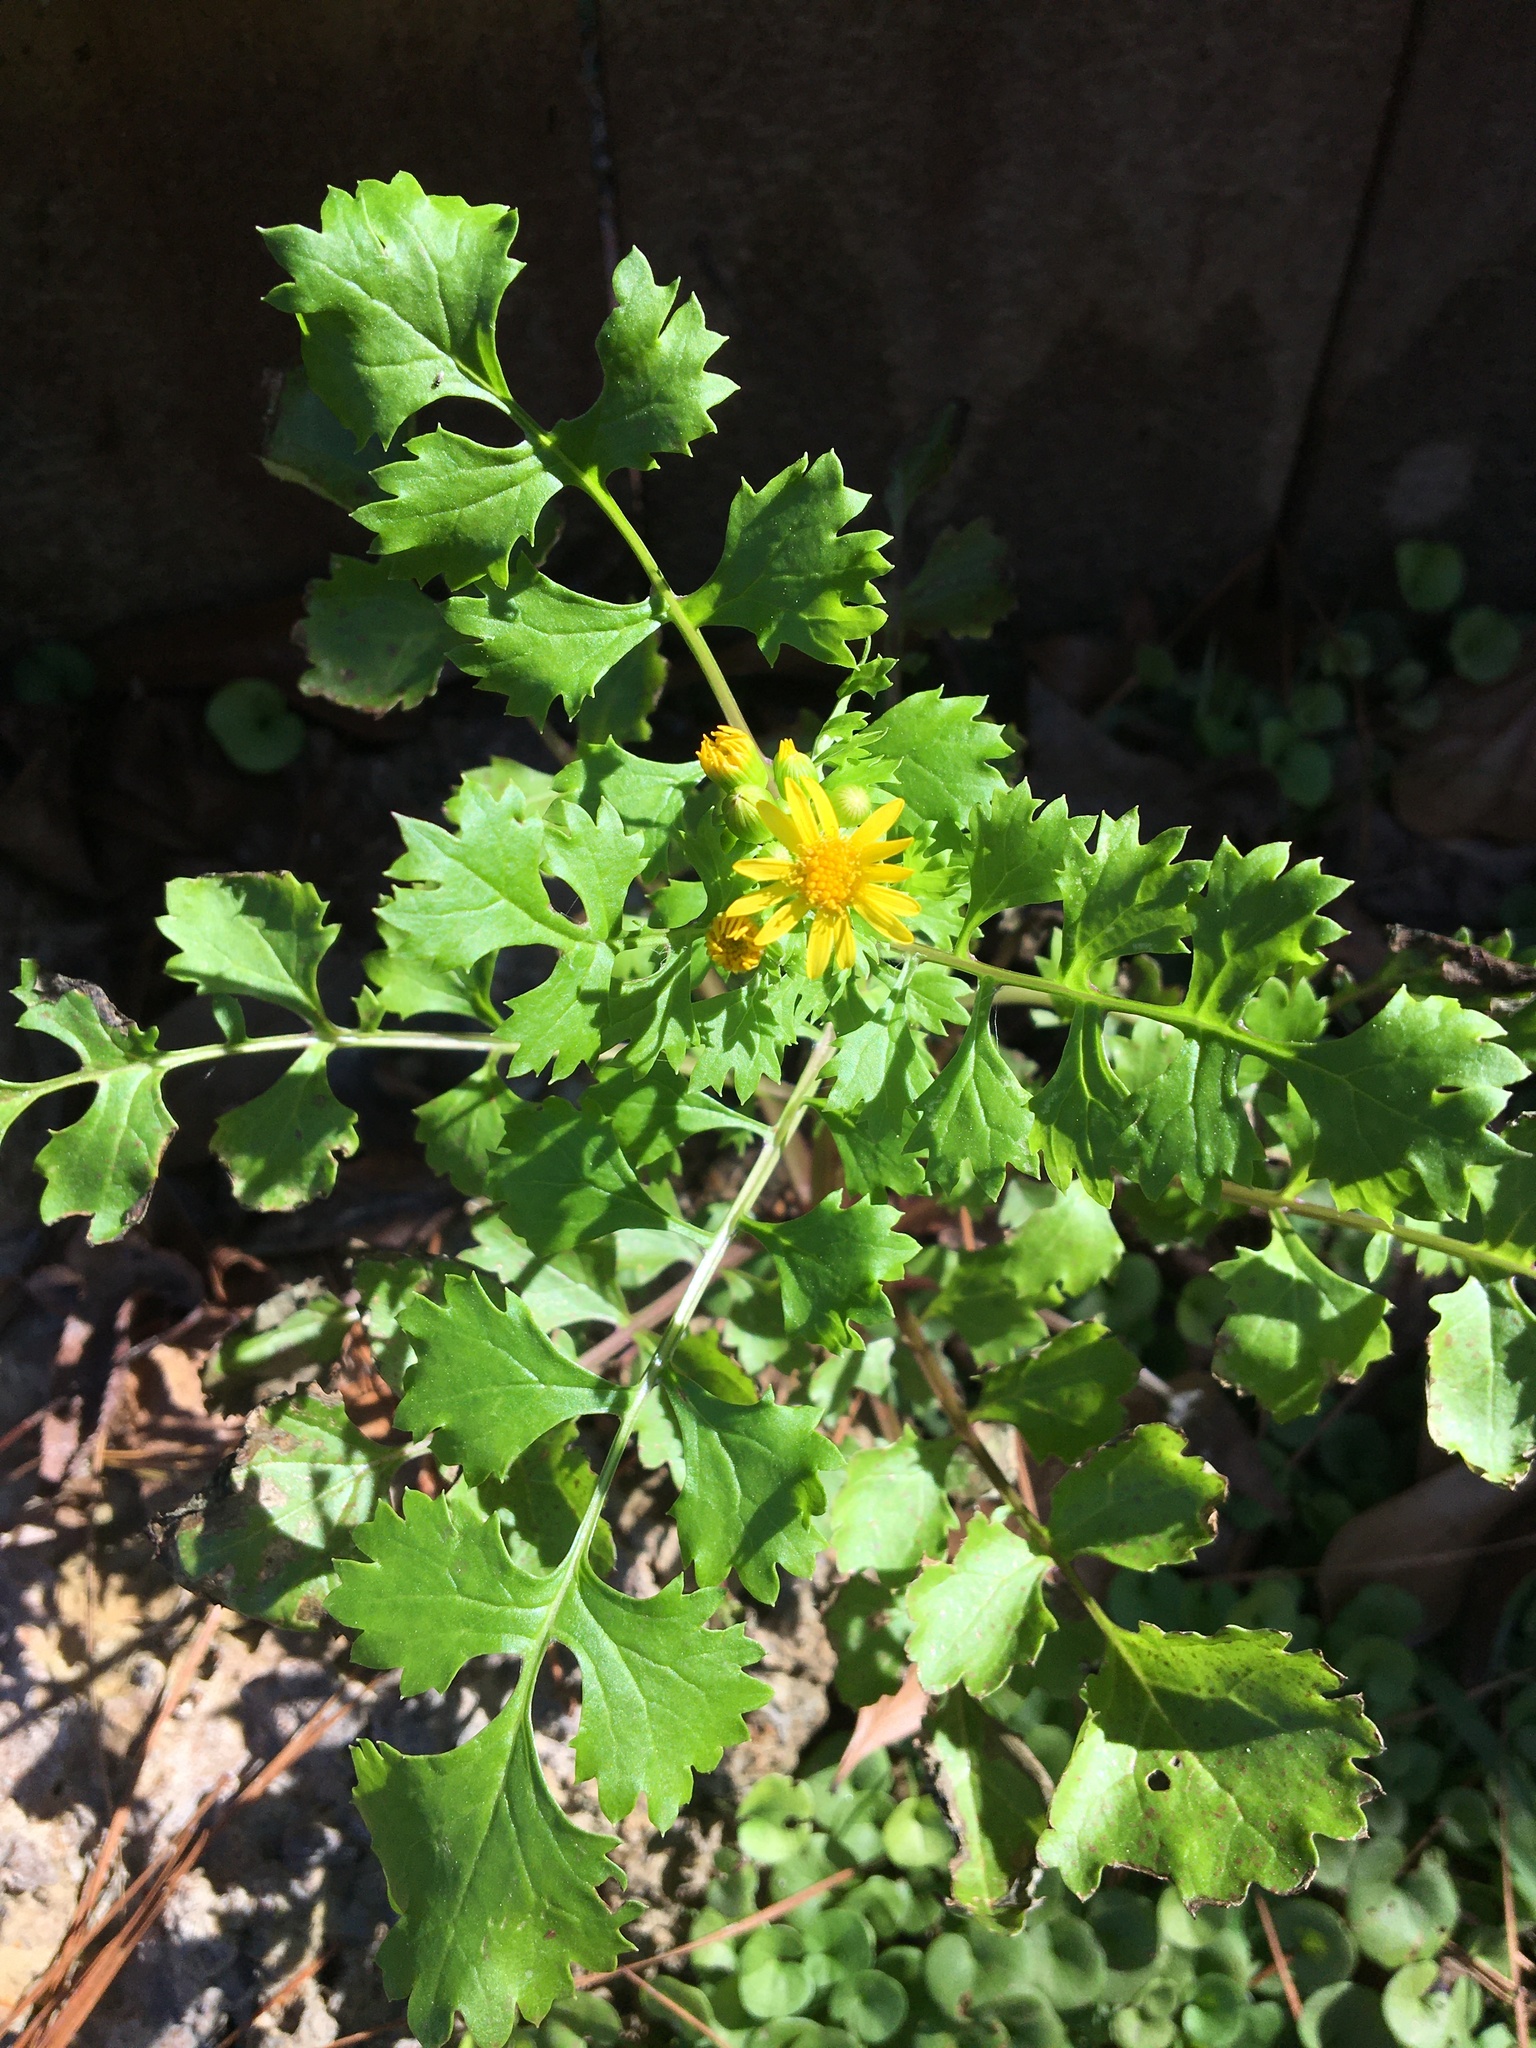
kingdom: Plantae
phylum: Tracheophyta
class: Magnoliopsida
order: Asterales
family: Asteraceae
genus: Packera
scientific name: Packera glabella
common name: Butterweed
